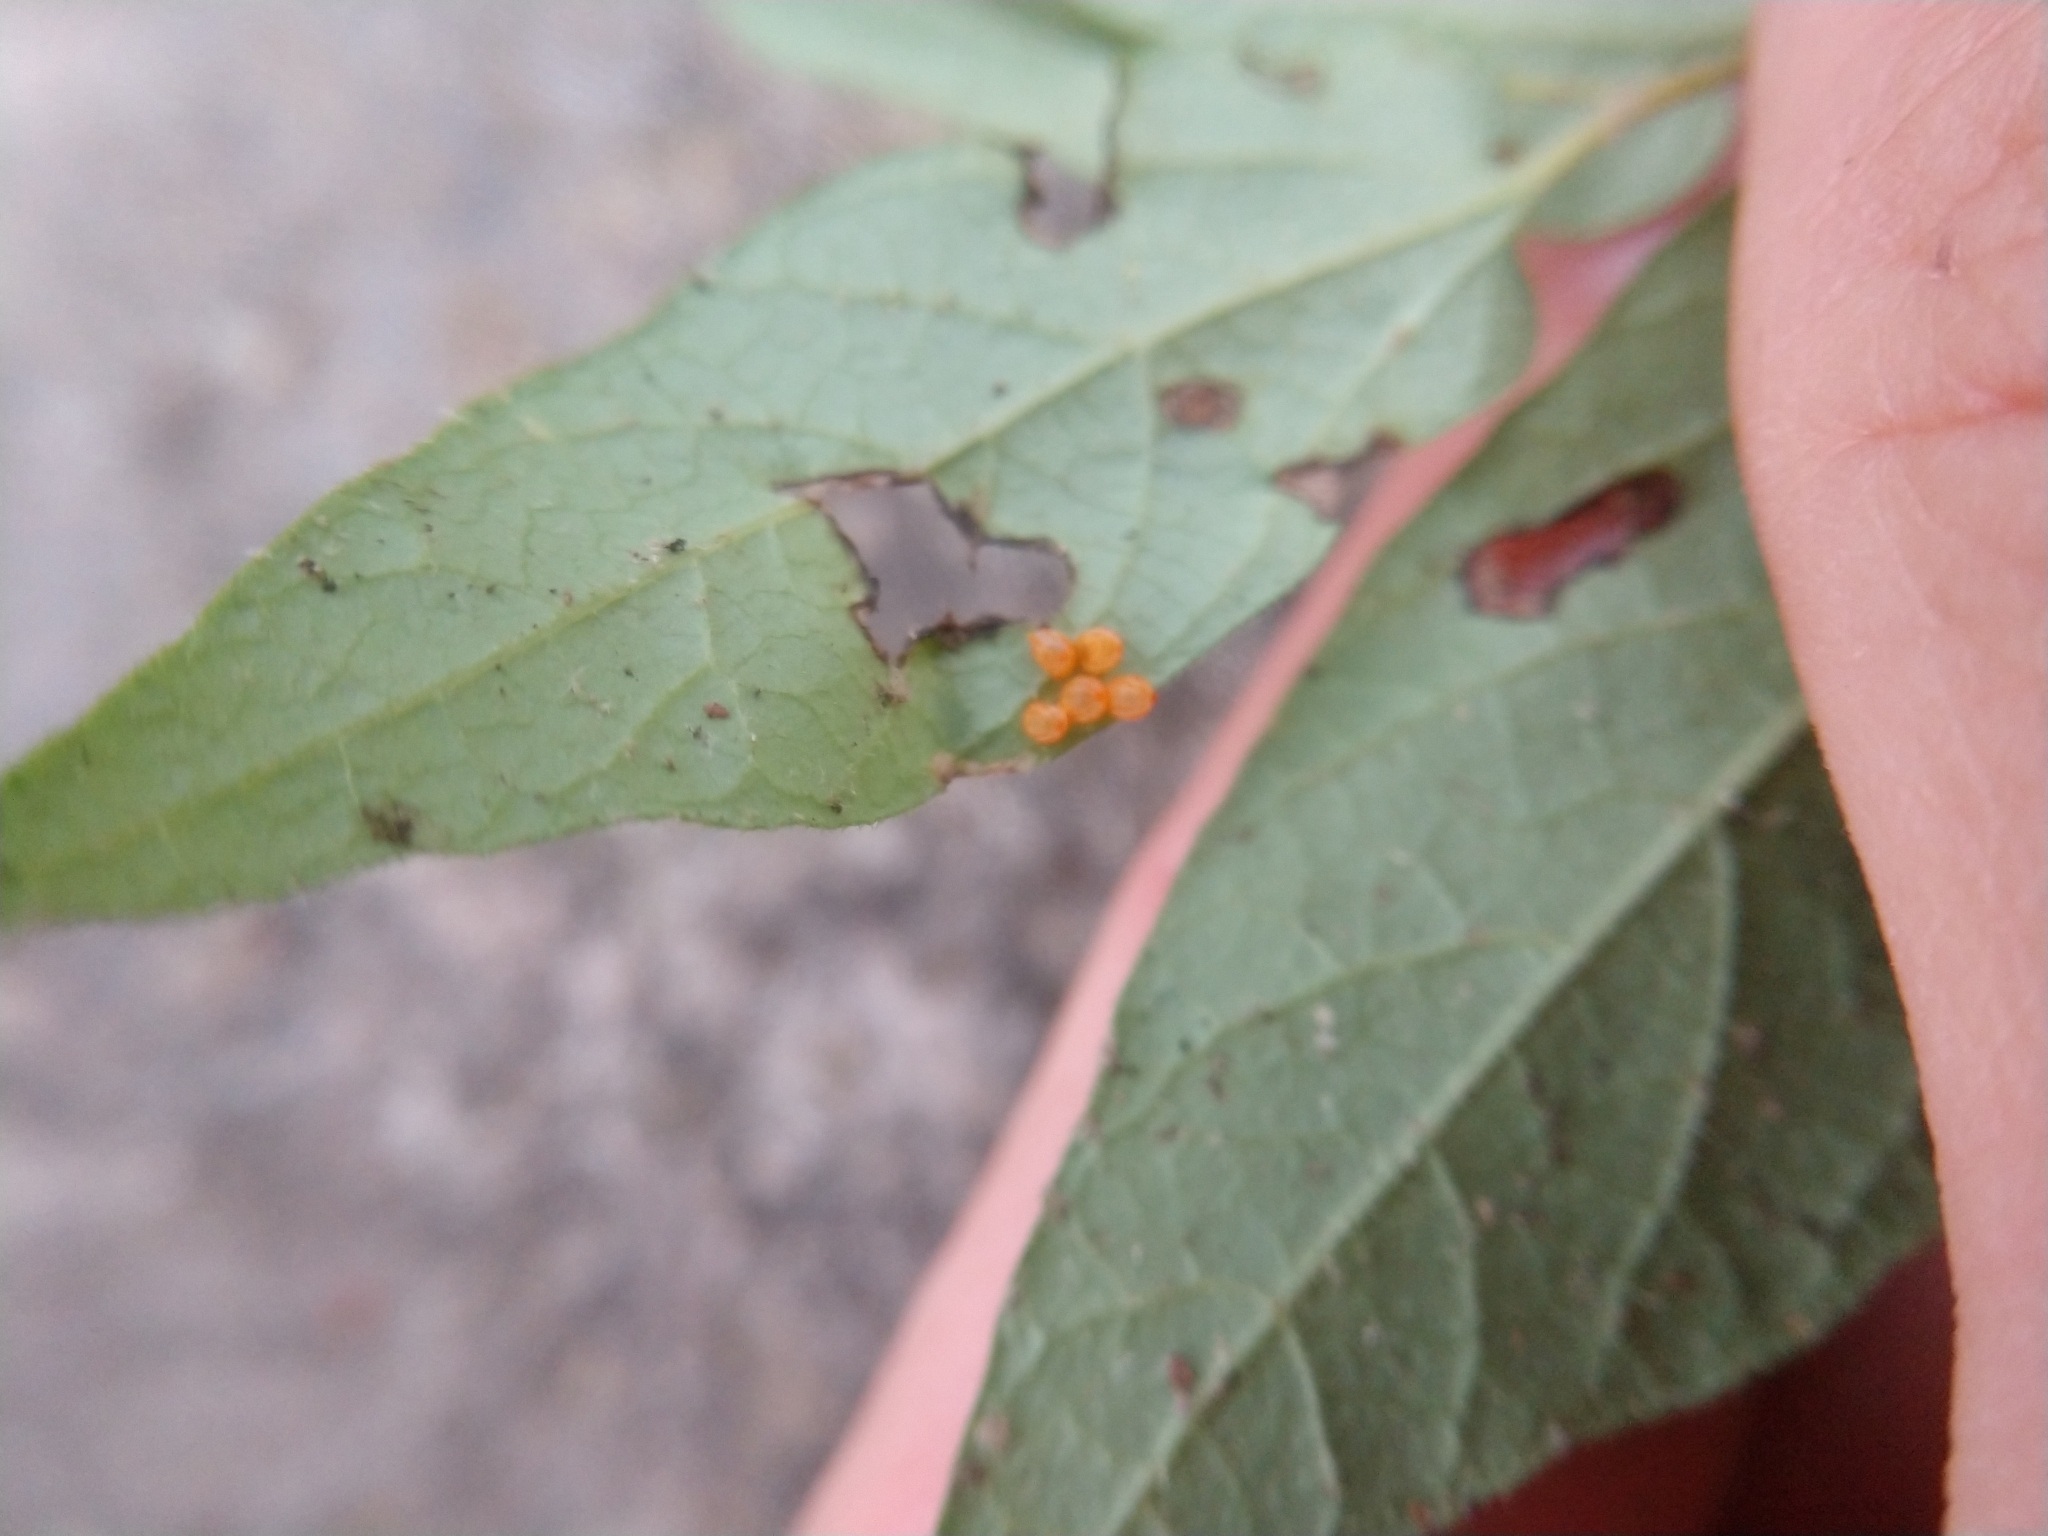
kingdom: Animalia
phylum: Arthropoda
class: Insecta
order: Lepidoptera
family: Papilionidae
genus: Battus
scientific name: Battus philenor
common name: Pipevine swallowtail
